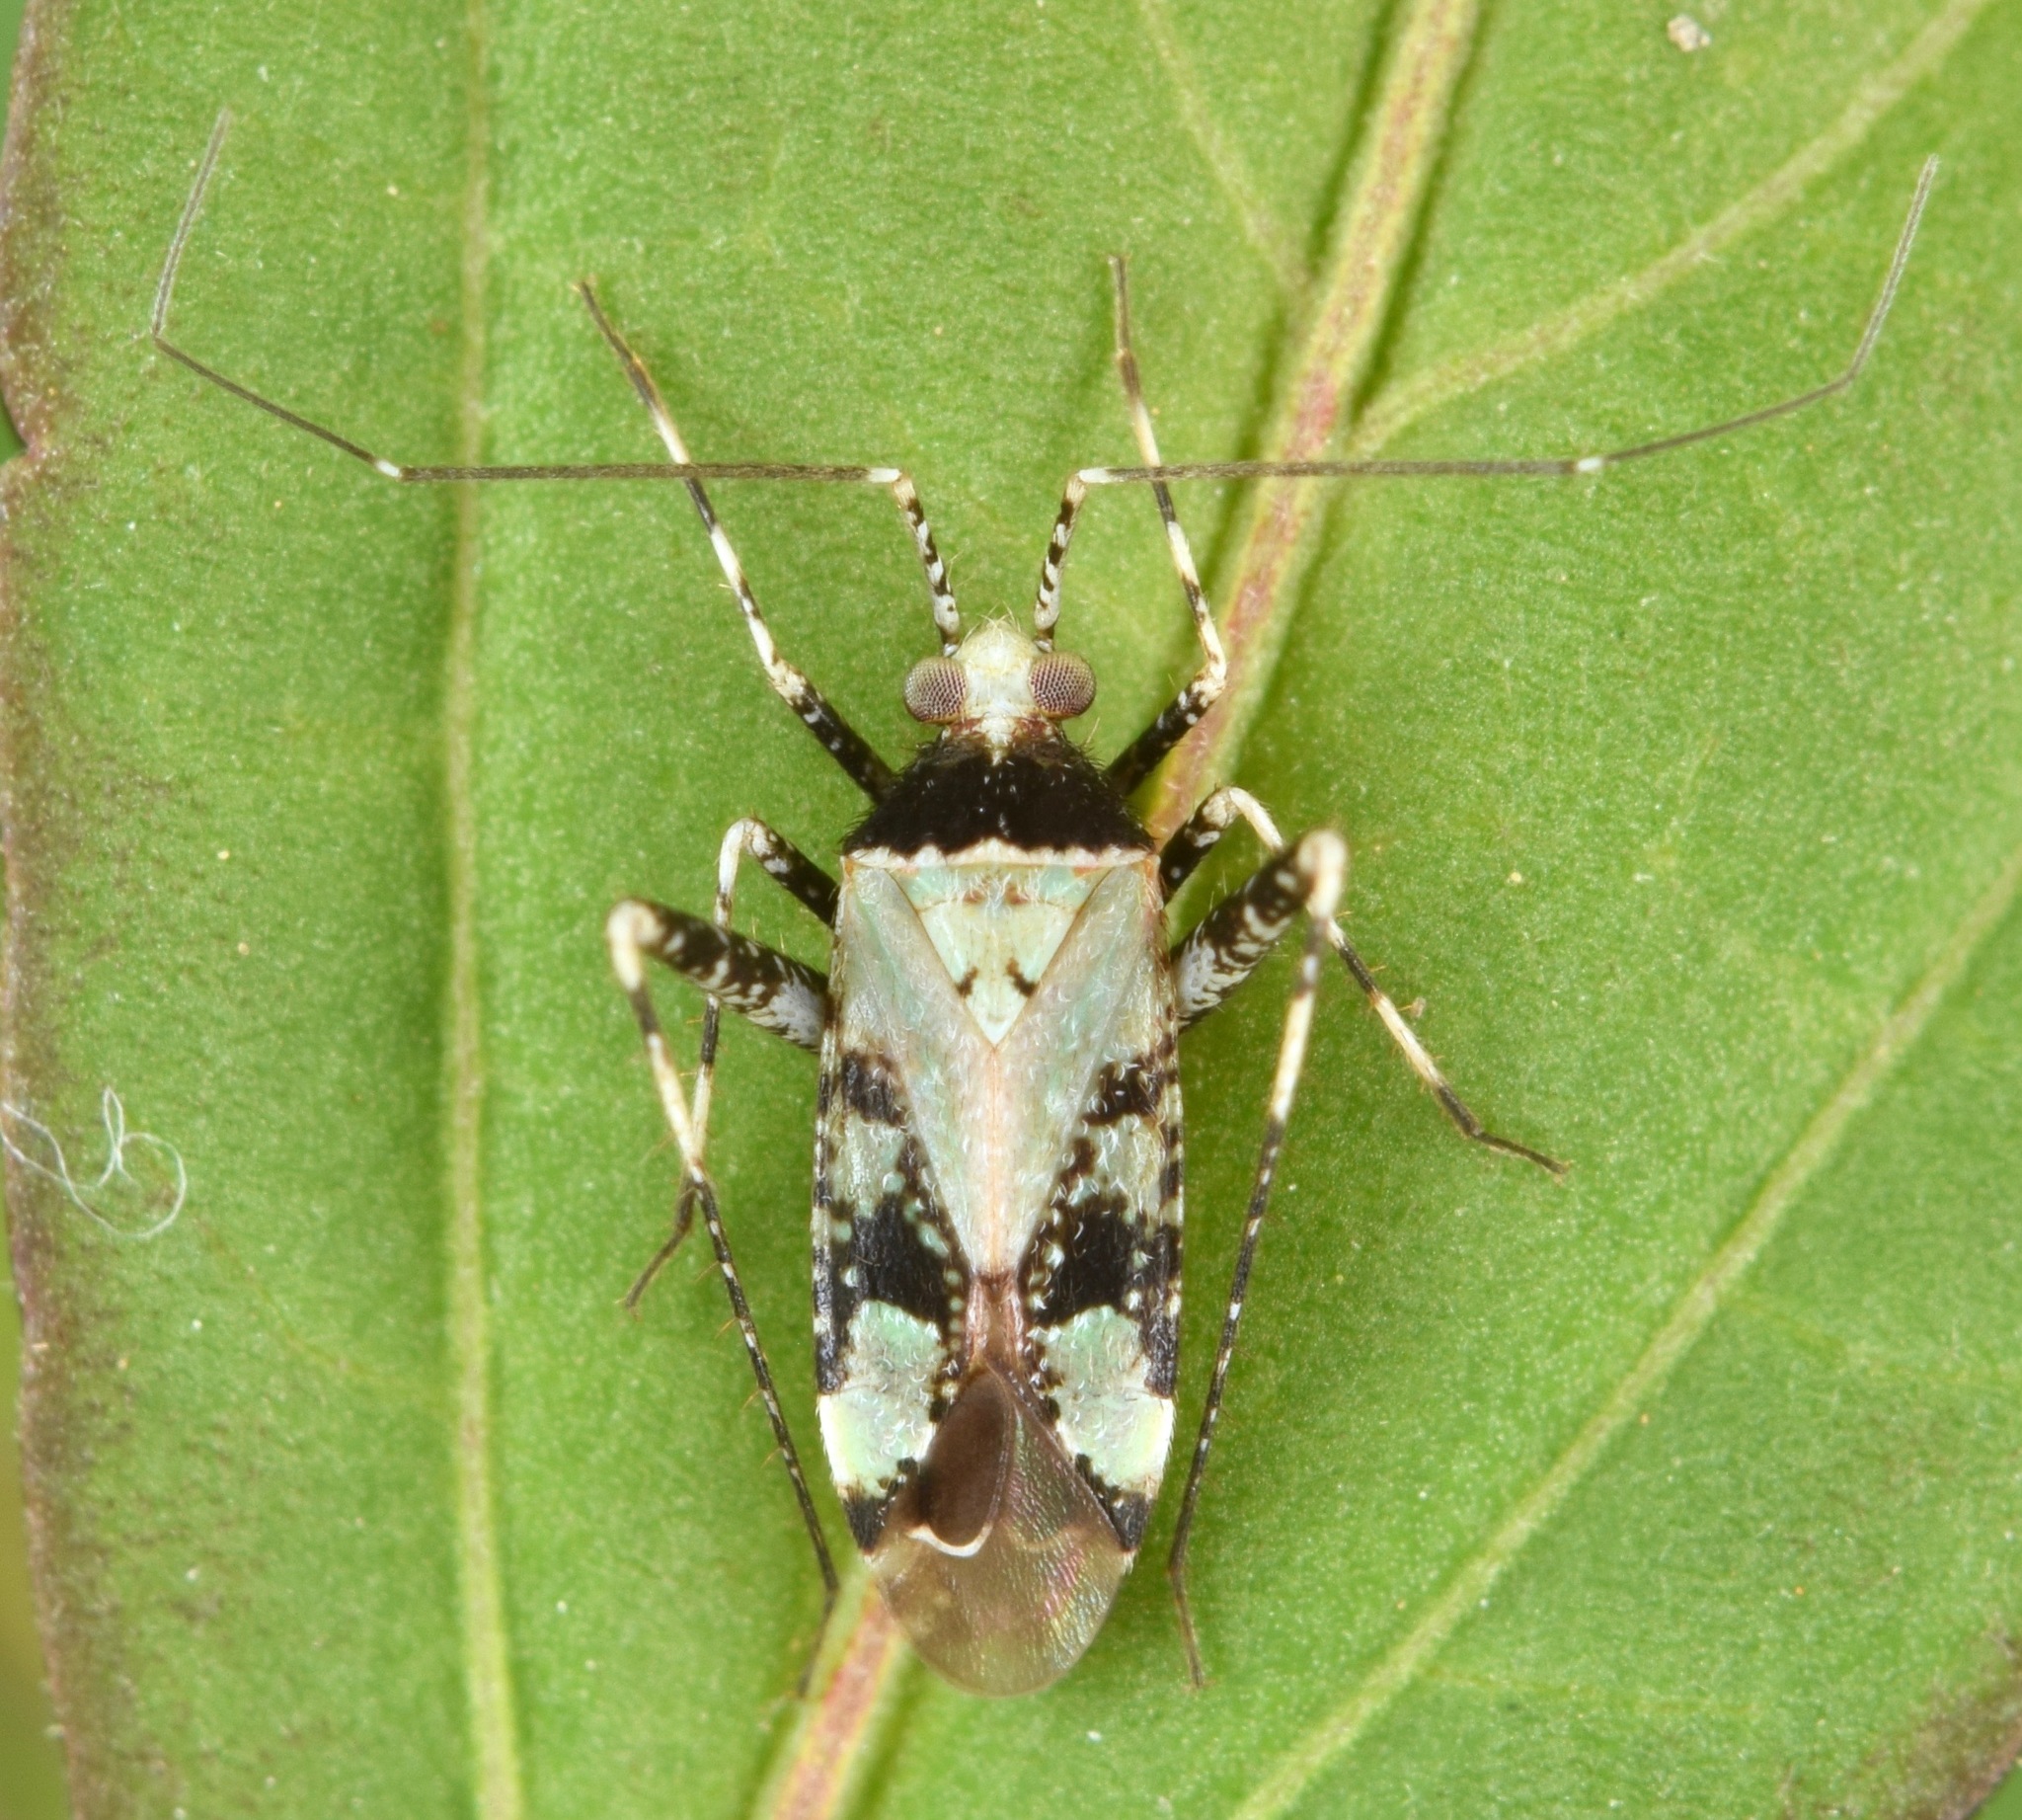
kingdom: Animalia
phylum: Arthropoda
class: Insecta
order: Hemiptera
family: Miridae
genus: Phytocoris
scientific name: Phytocoris nigricollis
